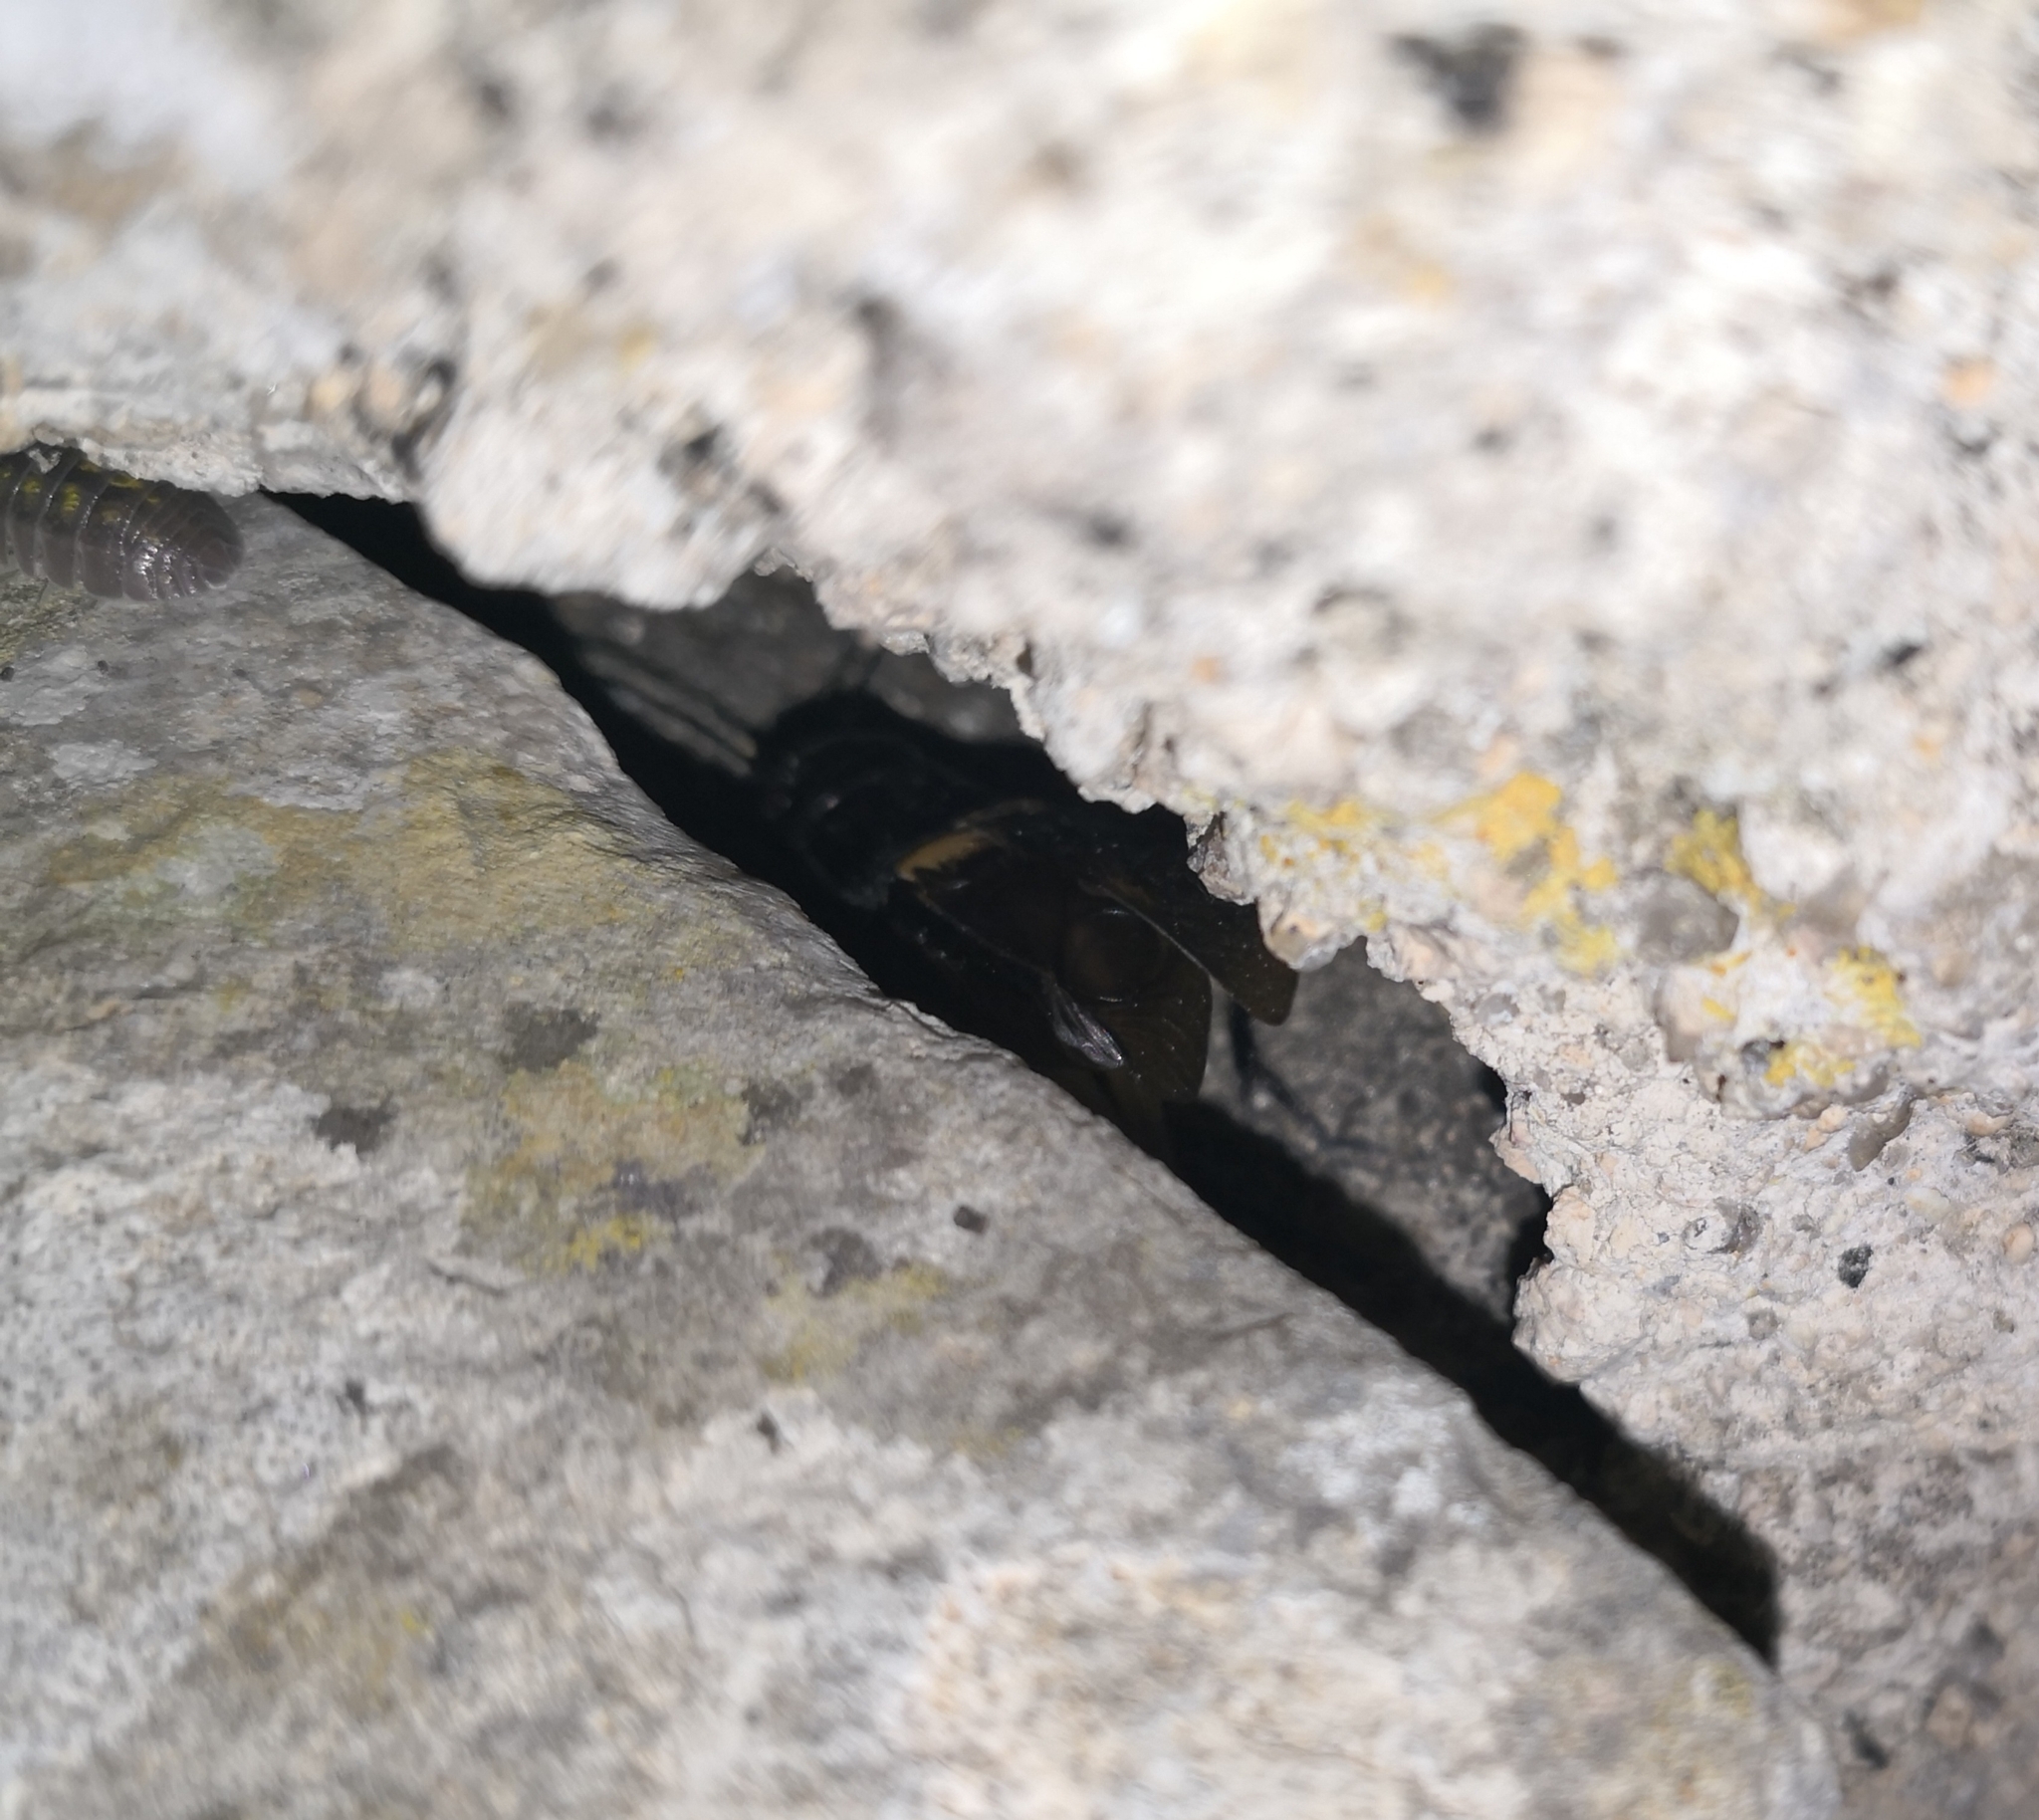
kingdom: Animalia
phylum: Arthropoda
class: Insecta
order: Orthoptera
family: Gryllidae
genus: Gryllus
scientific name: Gryllus bimaculatus
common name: Two-spotted cricket
